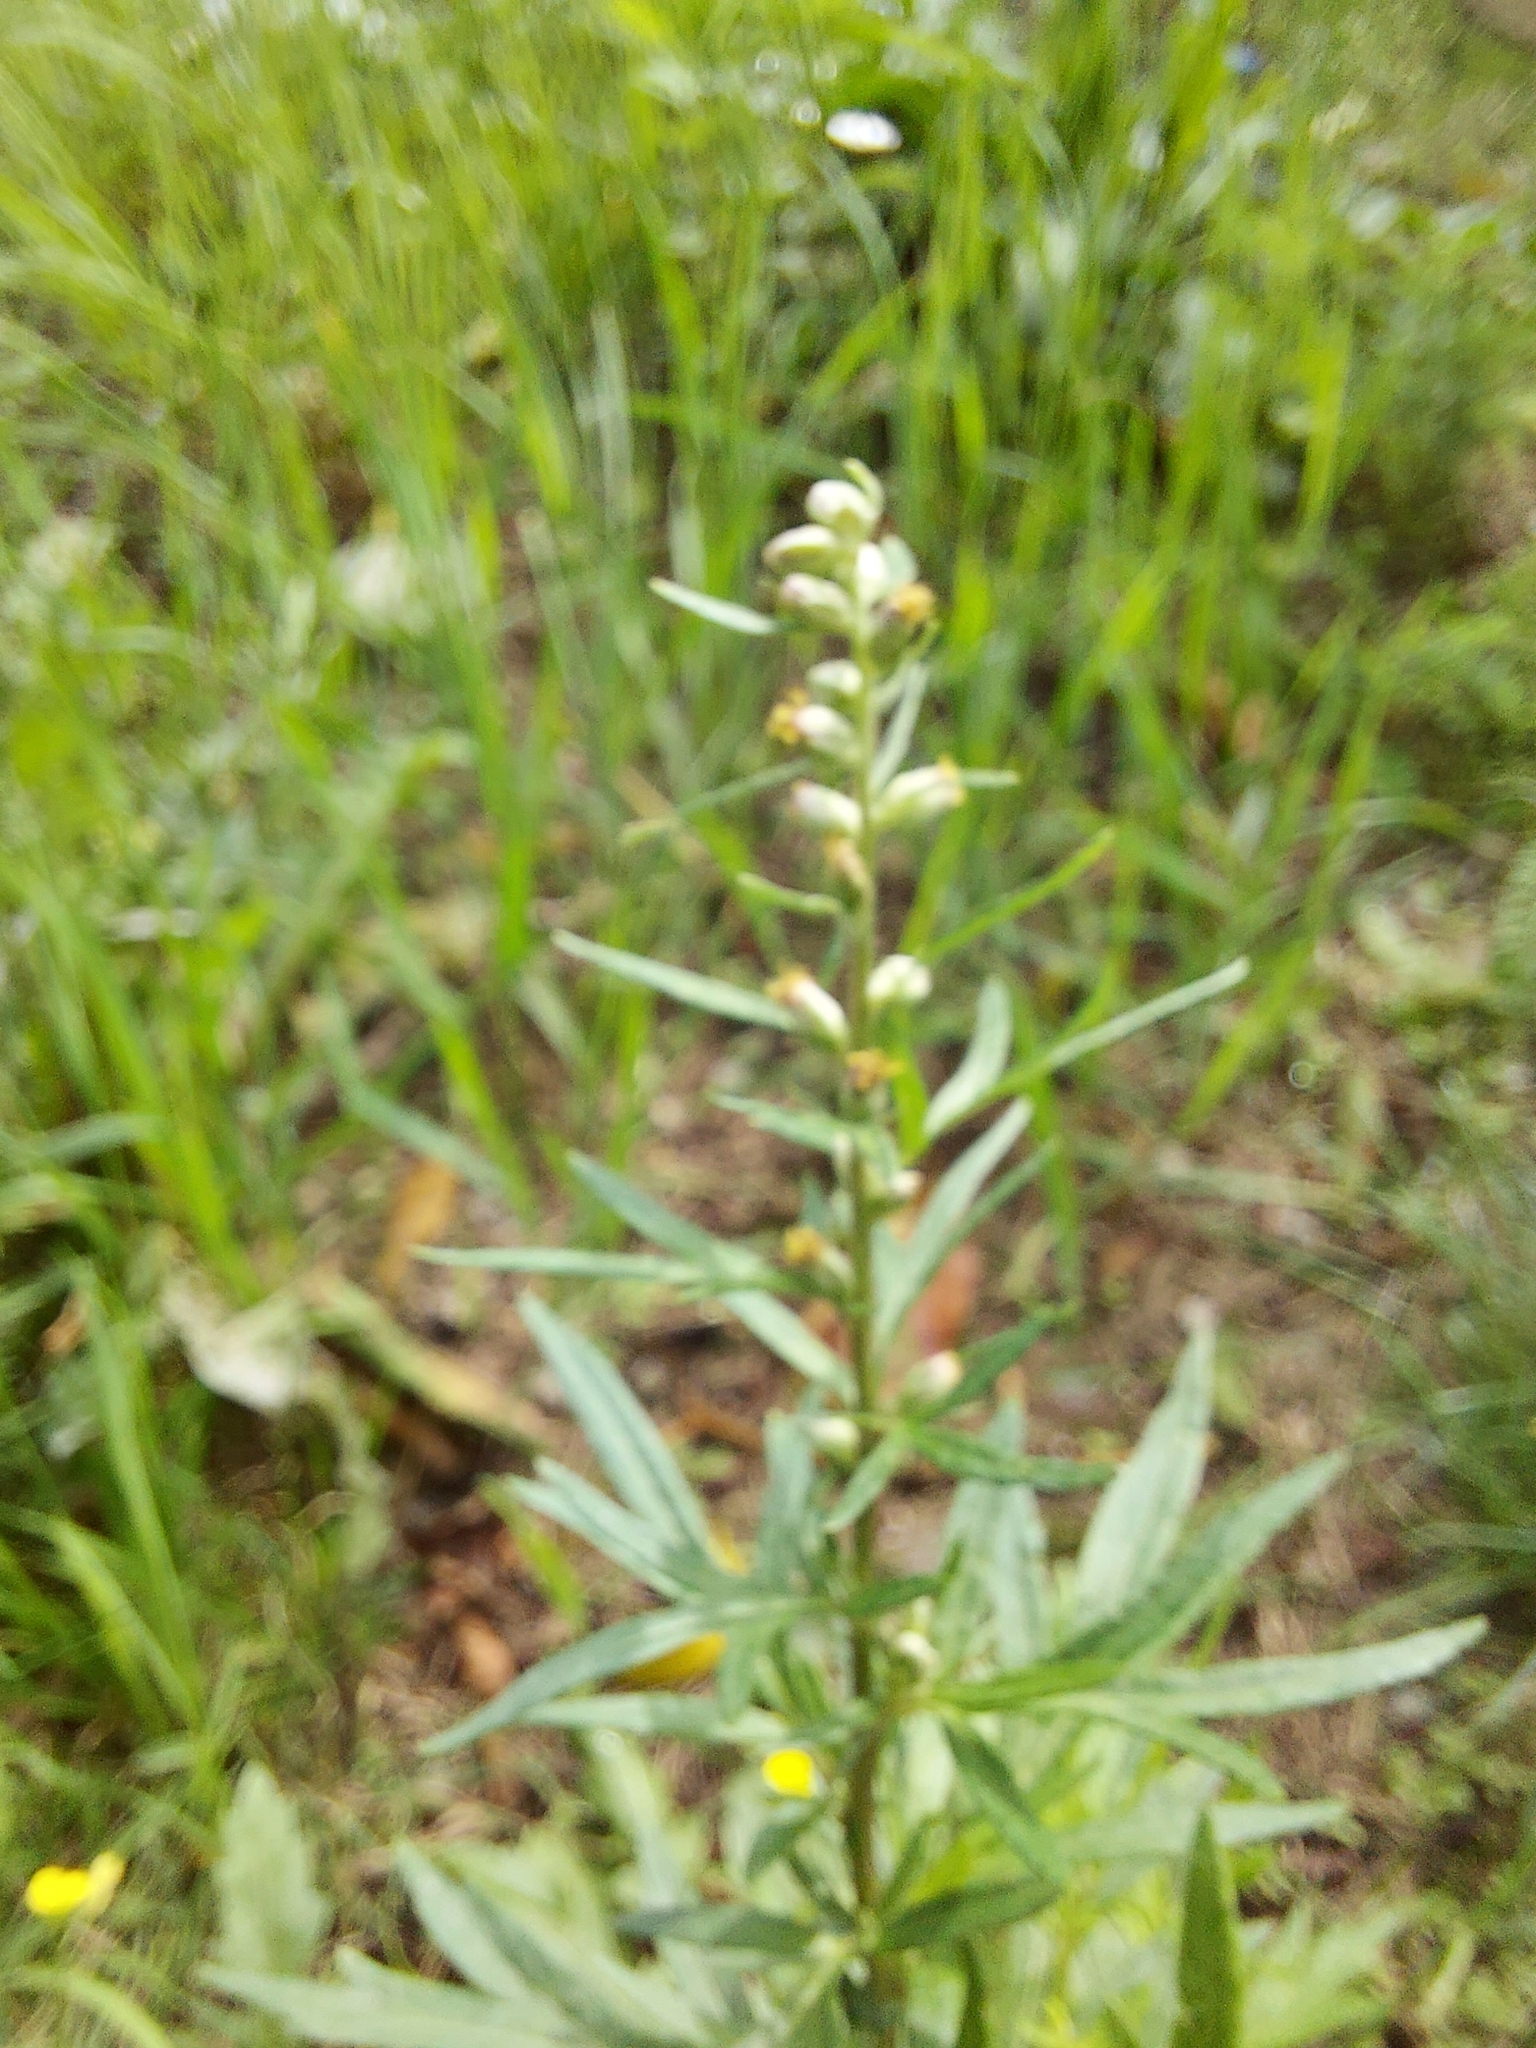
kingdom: Plantae
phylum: Tracheophyta
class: Magnoliopsida
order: Asterales
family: Asteraceae
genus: Artemisia
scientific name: Artemisia vulgaris
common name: Mugwort
